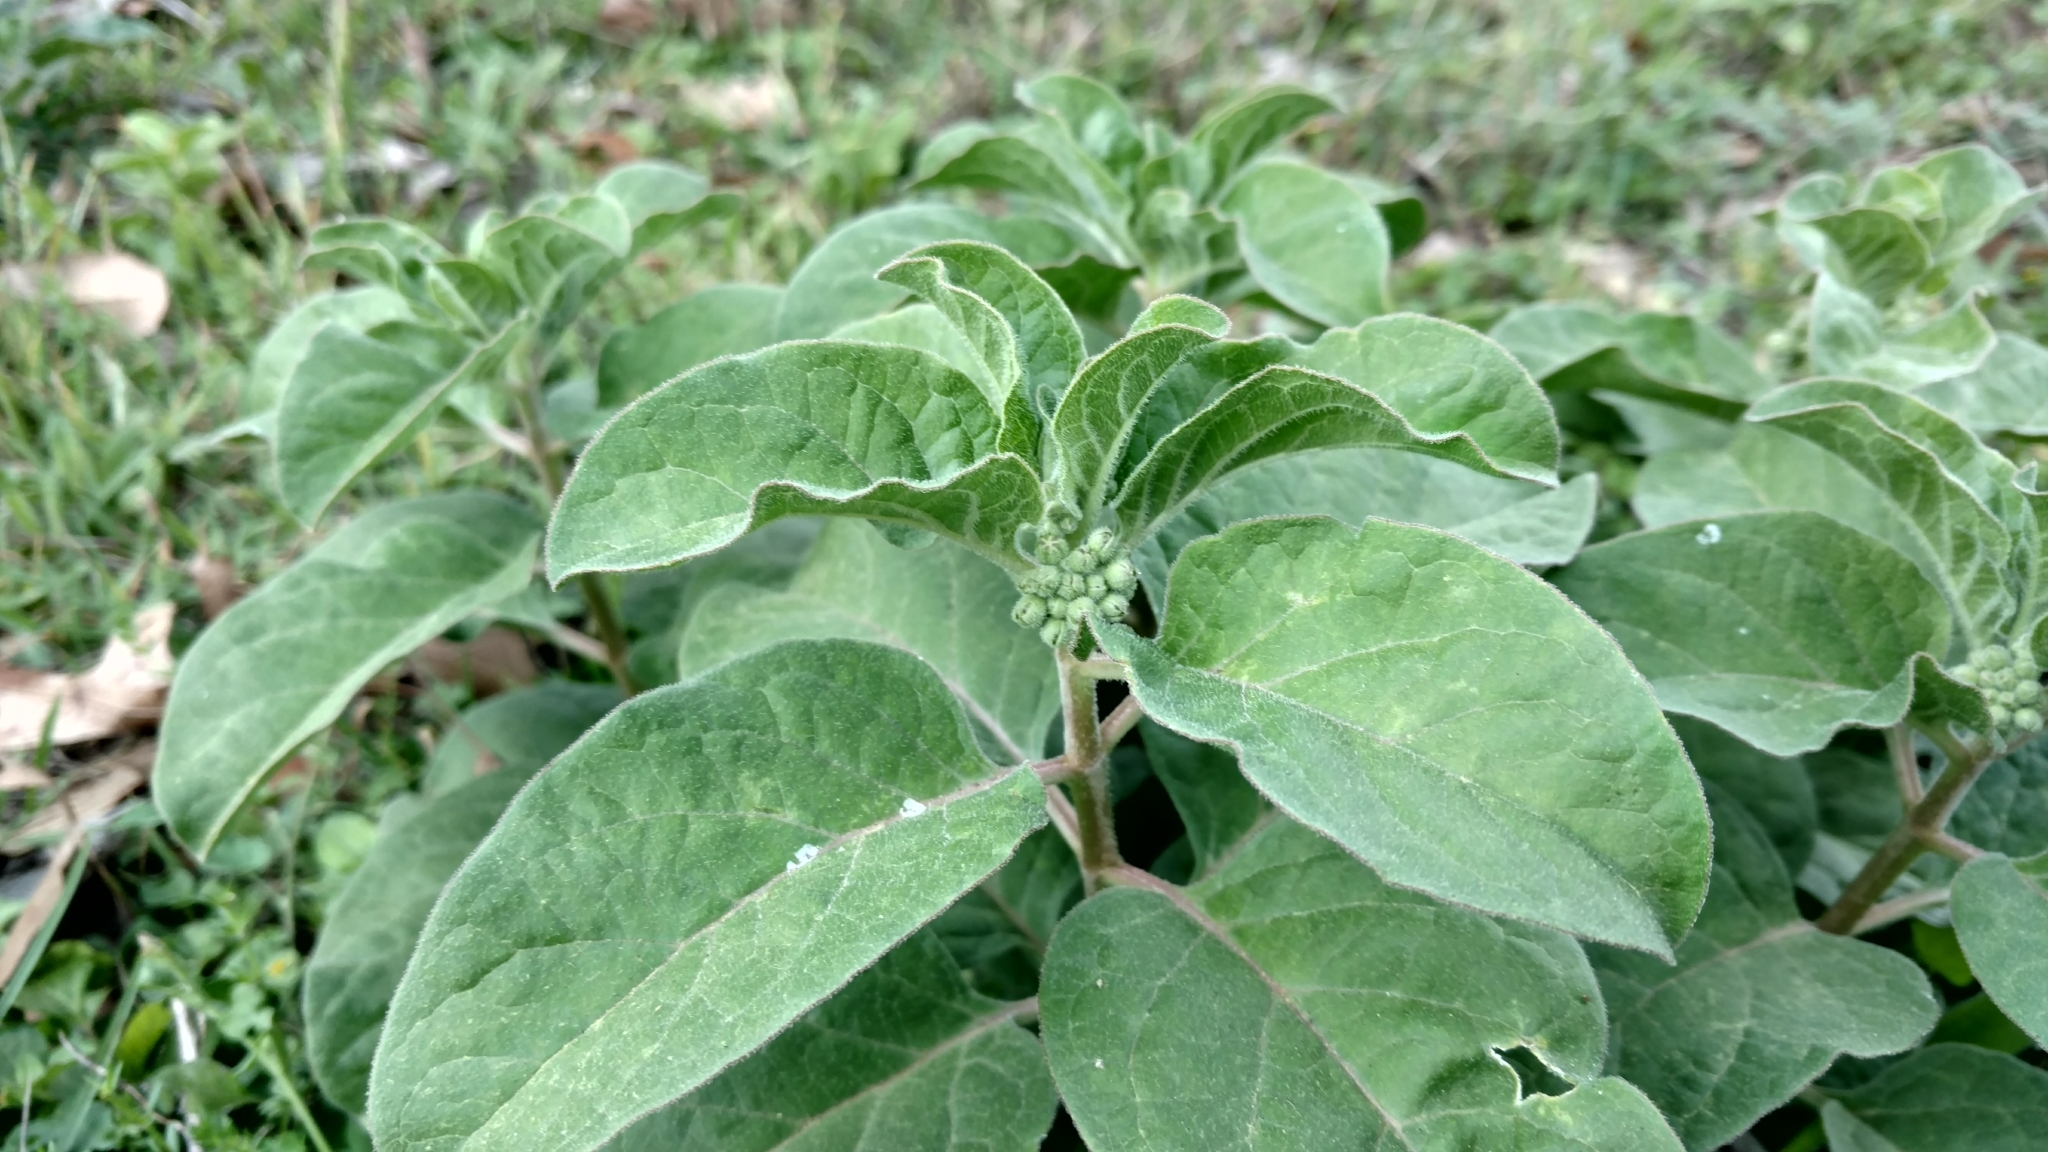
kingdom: Plantae
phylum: Tracheophyta
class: Magnoliopsida
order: Gentianales
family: Apocynaceae
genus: Asclepias
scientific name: Asclepias oenotheroides
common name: Zizotes milkweed
